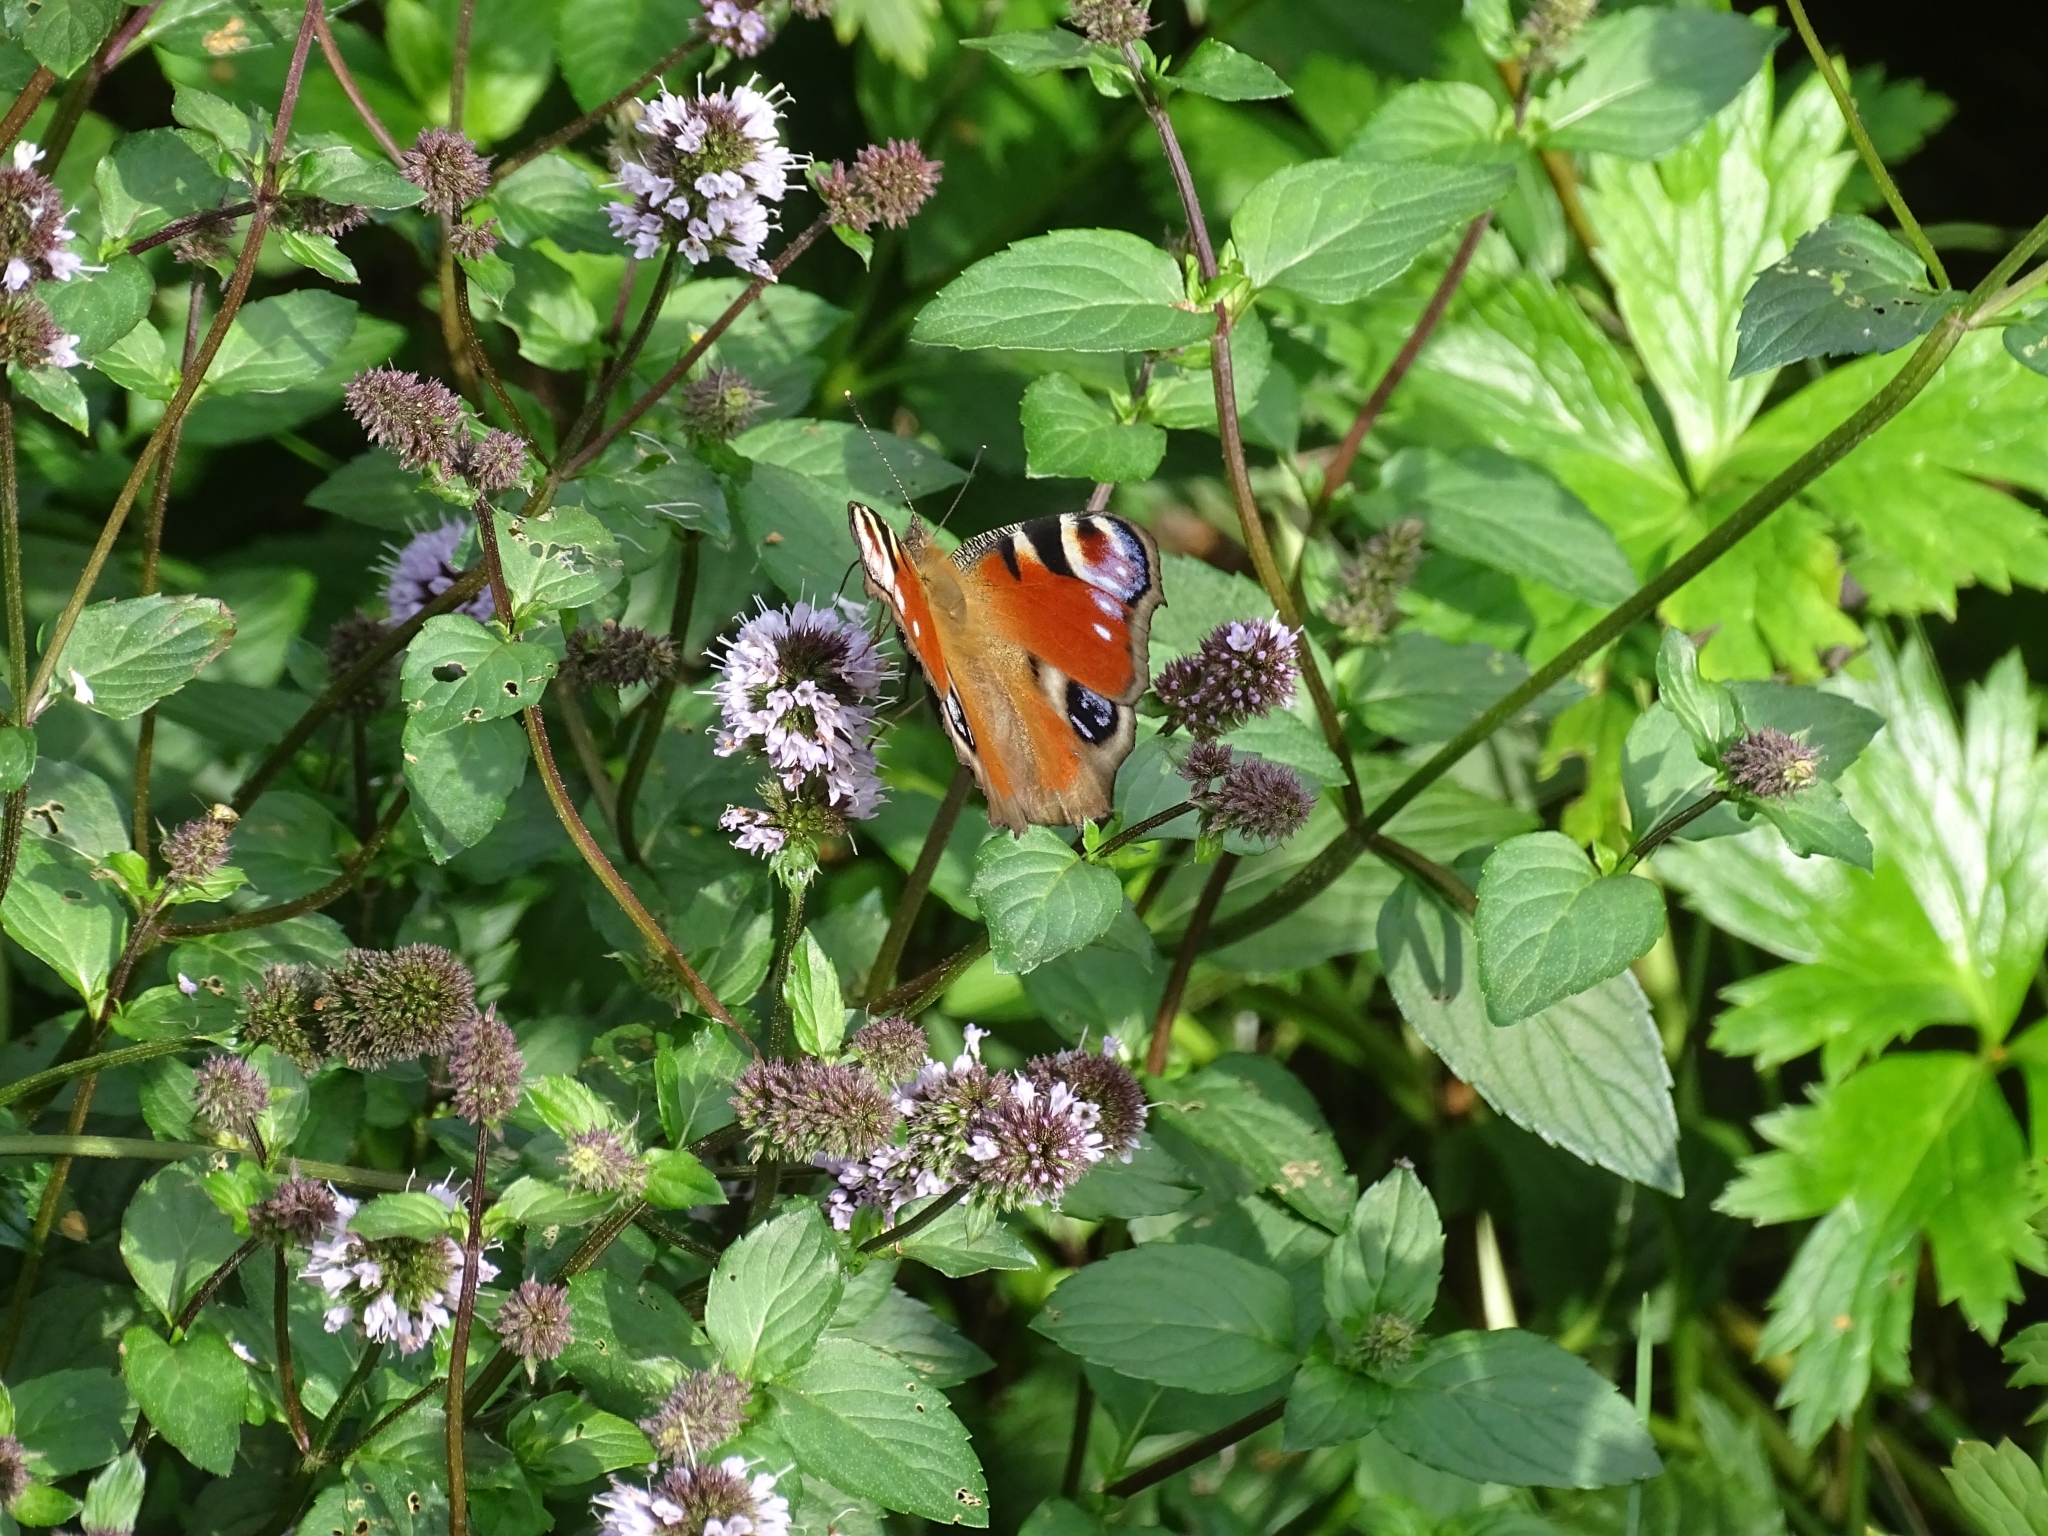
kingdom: Animalia
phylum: Arthropoda
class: Insecta
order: Lepidoptera
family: Nymphalidae
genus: Aglais
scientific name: Aglais io
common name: Peacock
